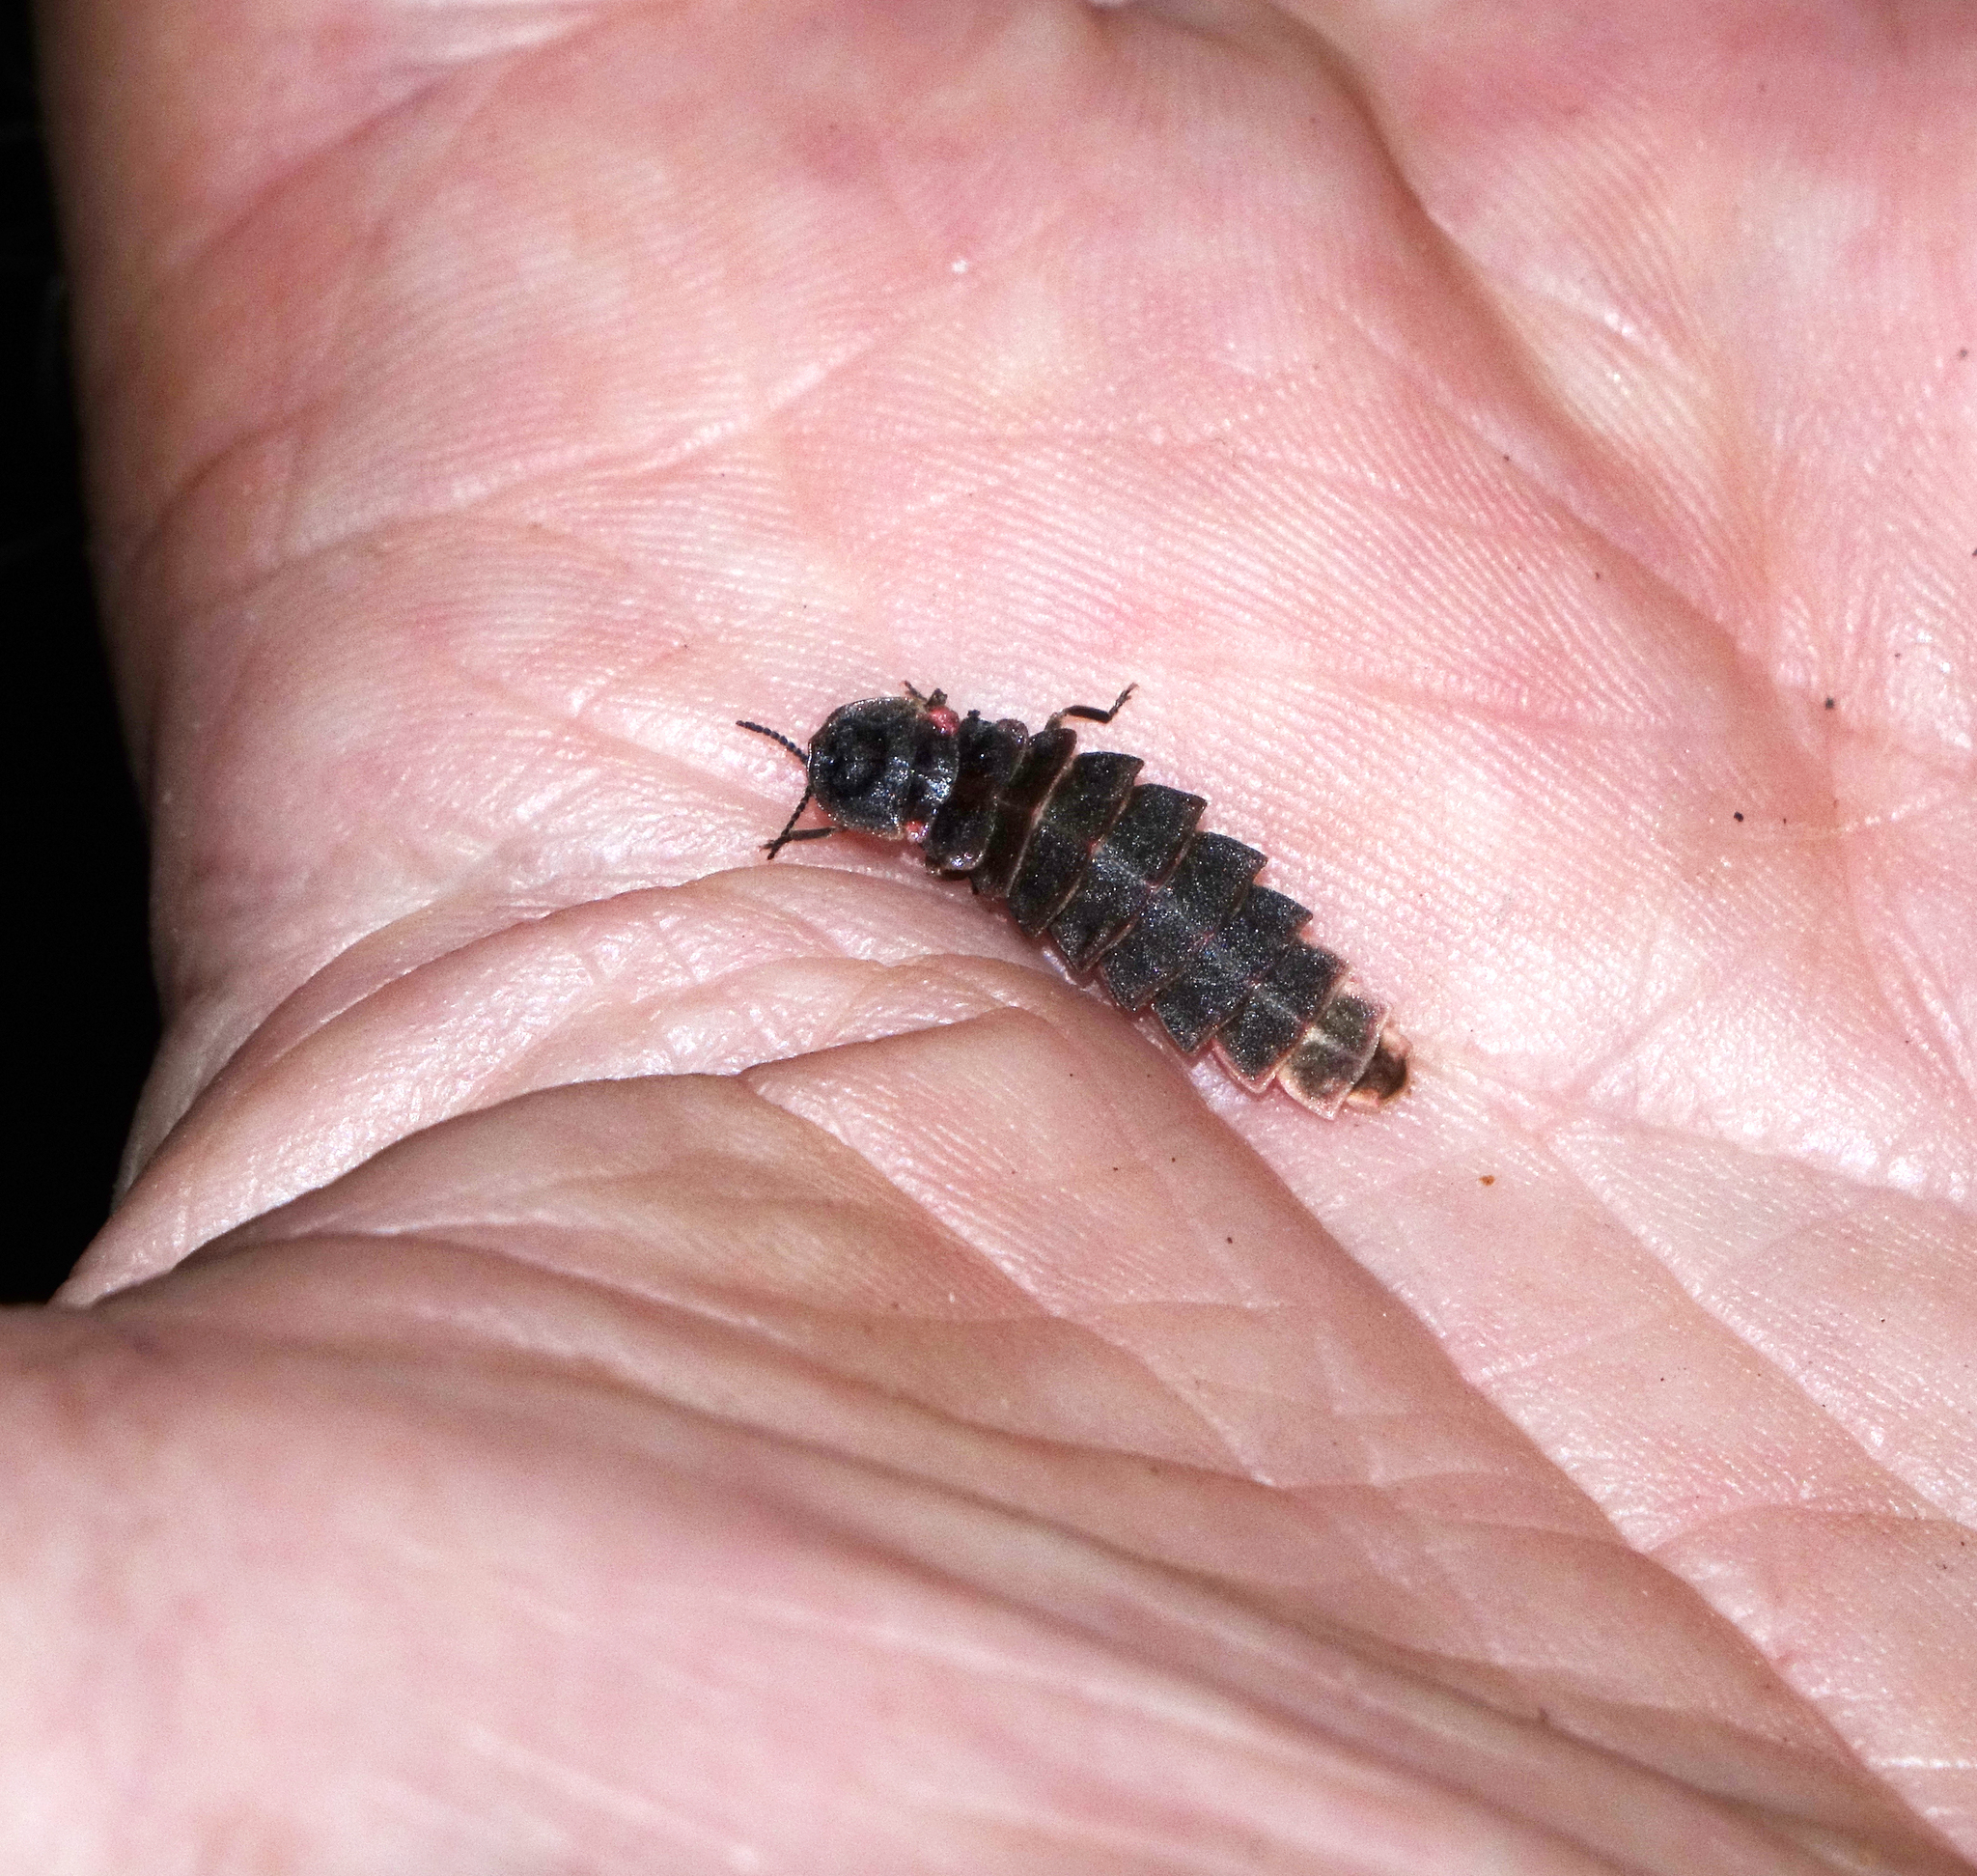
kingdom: Animalia
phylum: Arthropoda
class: Insecta
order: Coleoptera
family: Lampyridae
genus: Lampyris
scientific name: Lampyris noctiluca
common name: Glow-worm
